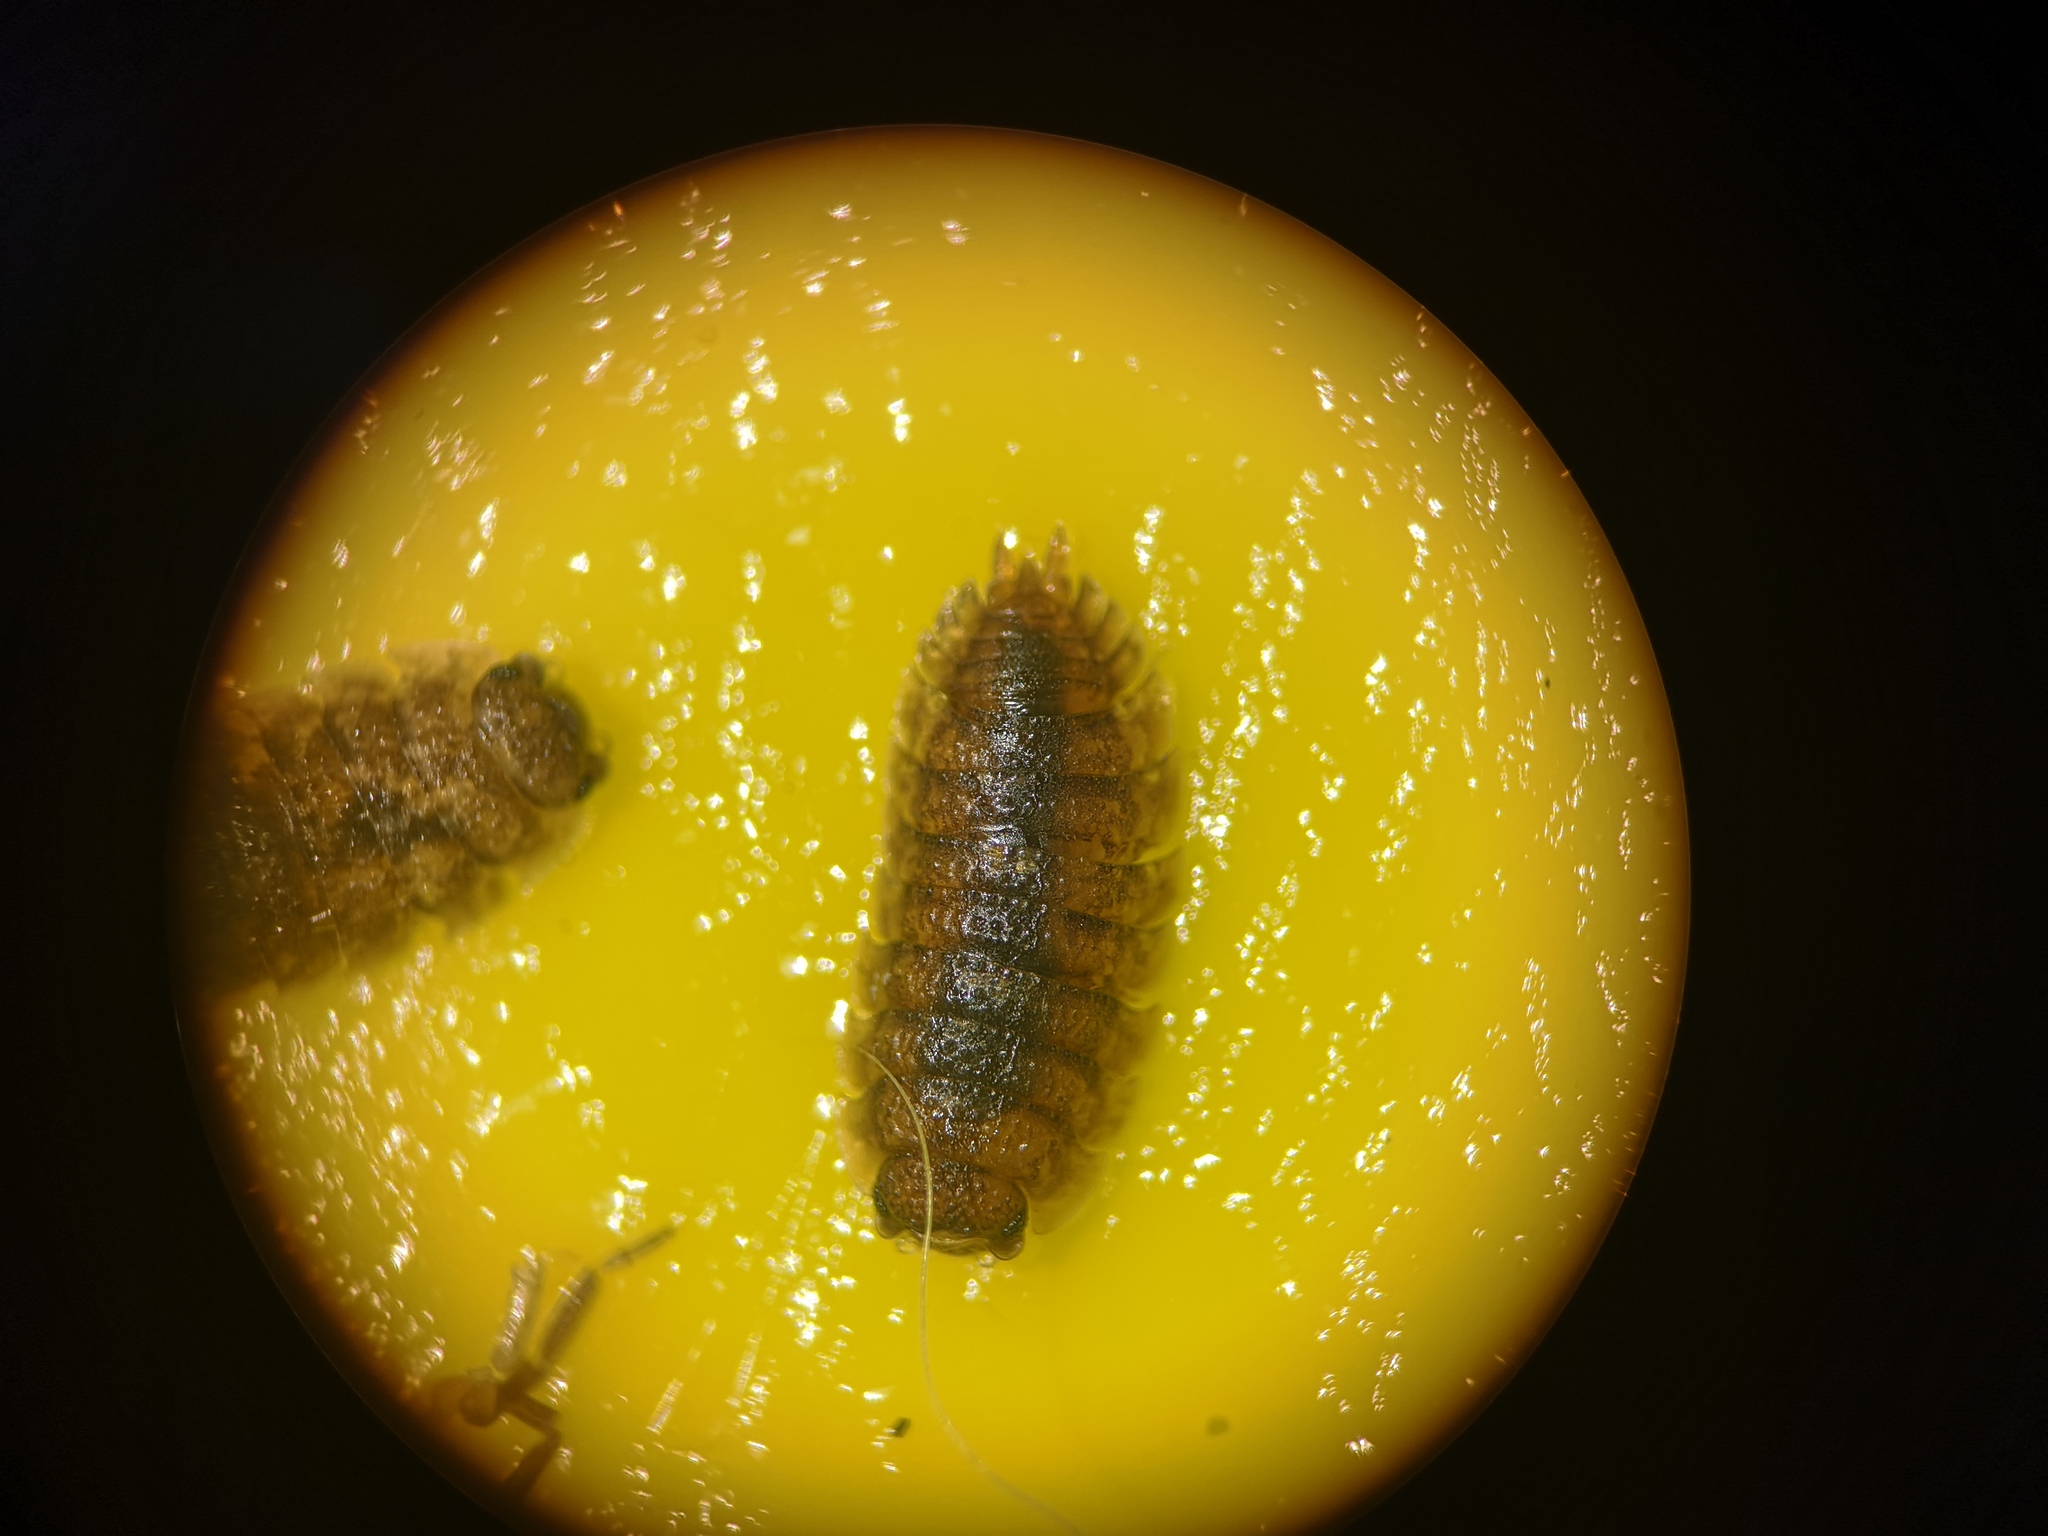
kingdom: Animalia
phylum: Arthropoda
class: Malacostraca
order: Isopoda
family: Porcellionidae
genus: Porcellio
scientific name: Porcellio scaber
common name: Common rough woodlouse
